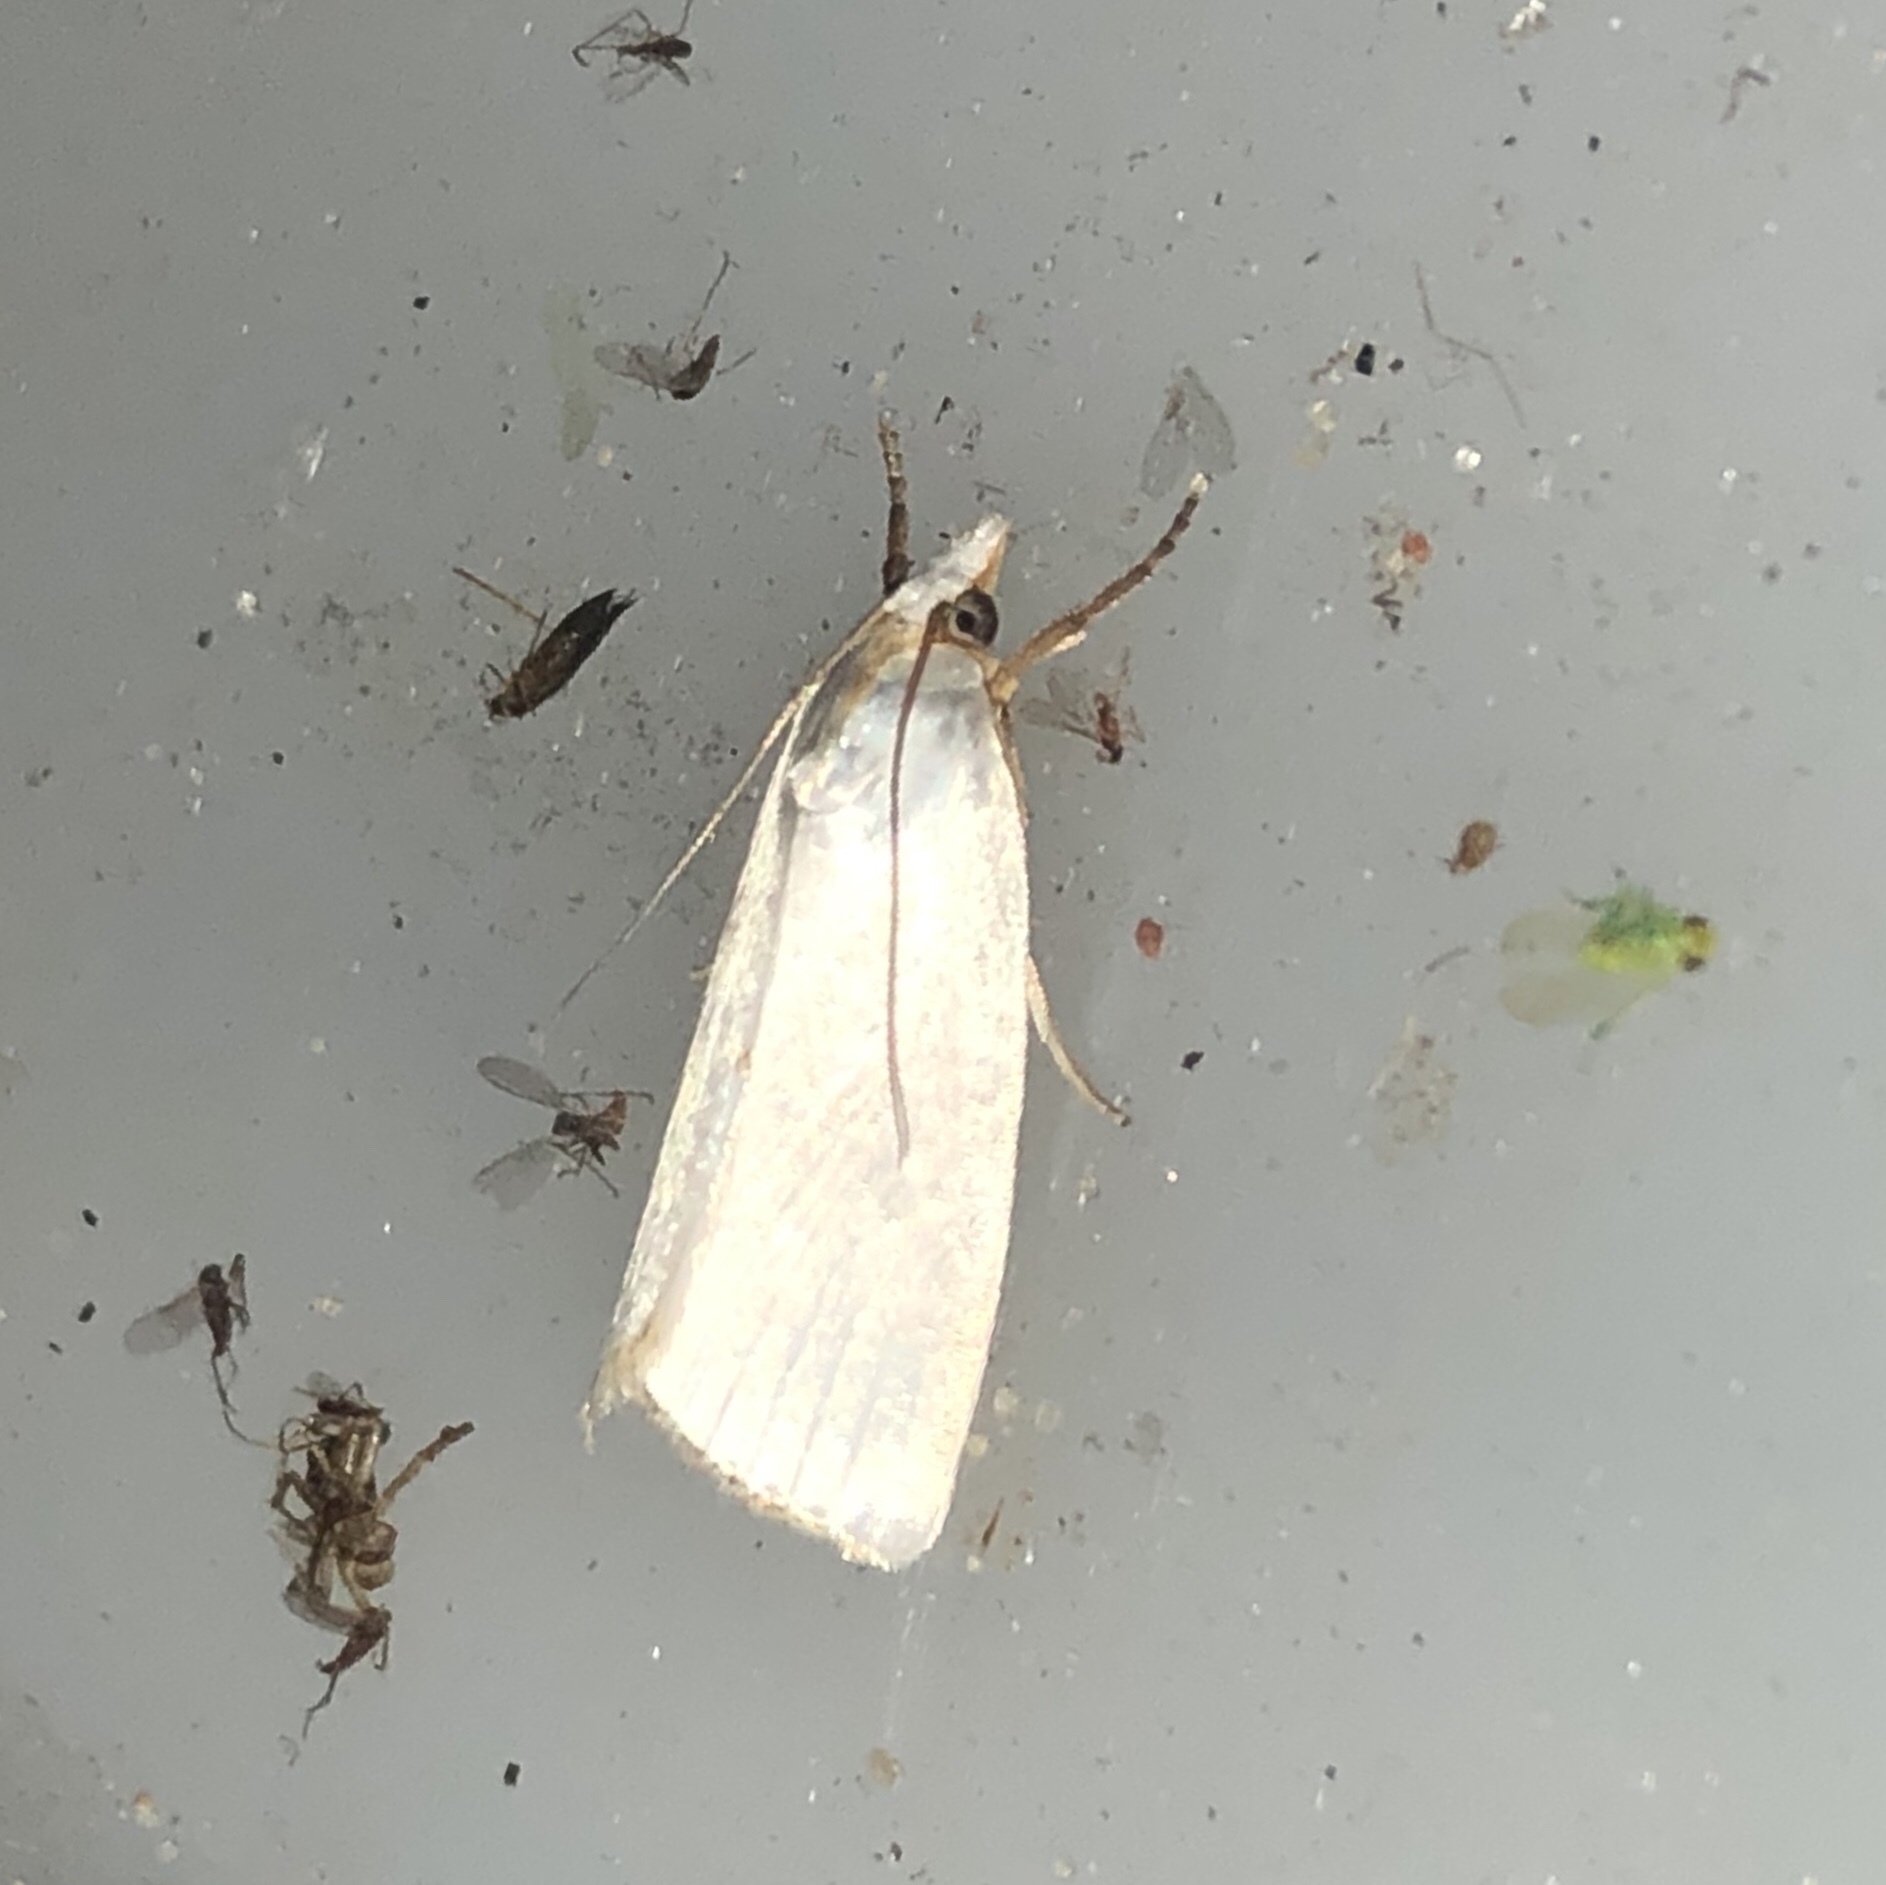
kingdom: Animalia
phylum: Arthropoda
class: Insecta
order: Lepidoptera
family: Crambidae
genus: Argyria
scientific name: Argyria nivalis
